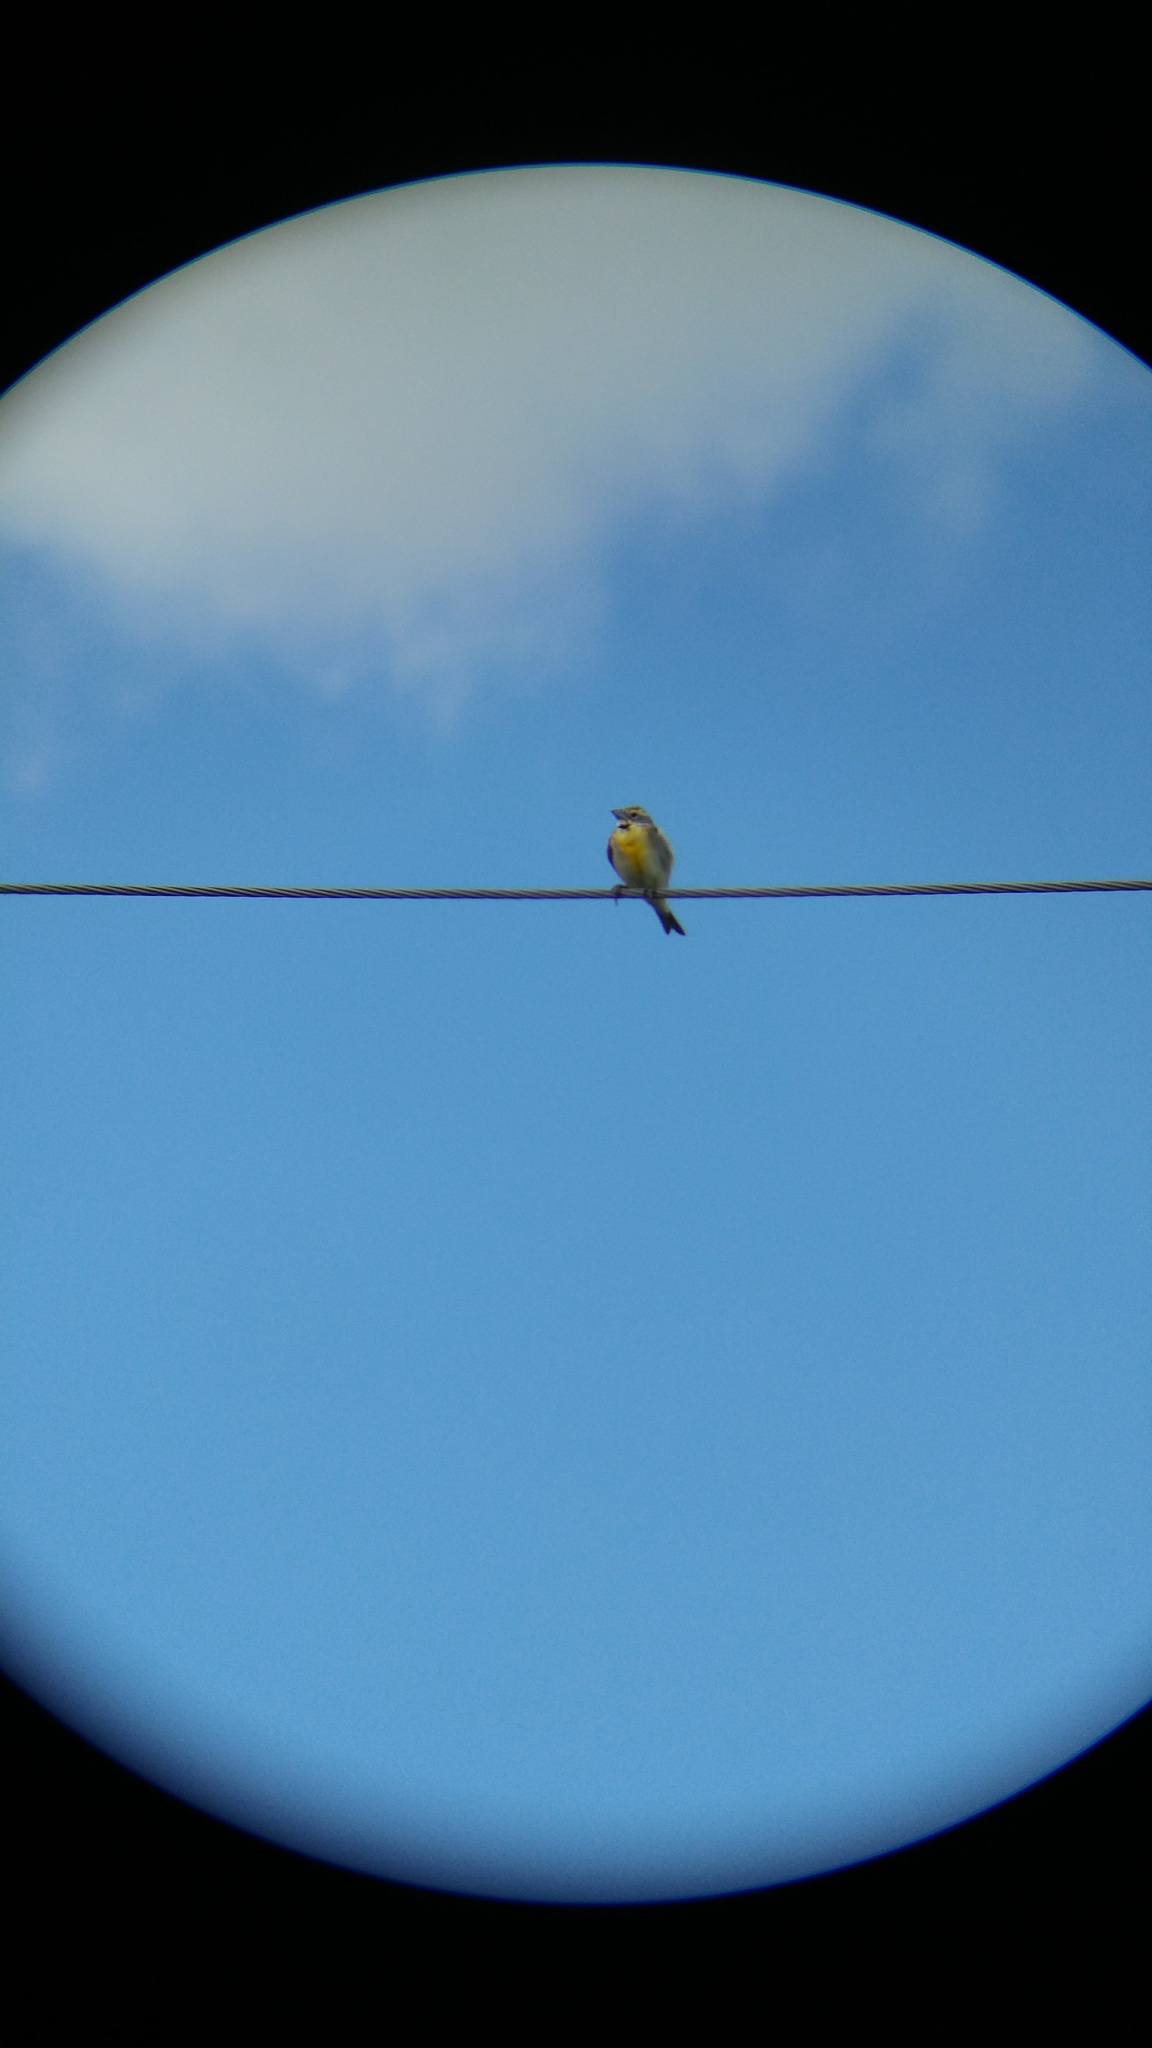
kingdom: Animalia
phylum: Chordata
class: Aves
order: Passeriformes
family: Cardinalidae
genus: Spiza
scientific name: Spiza americana
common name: Dickcissel
